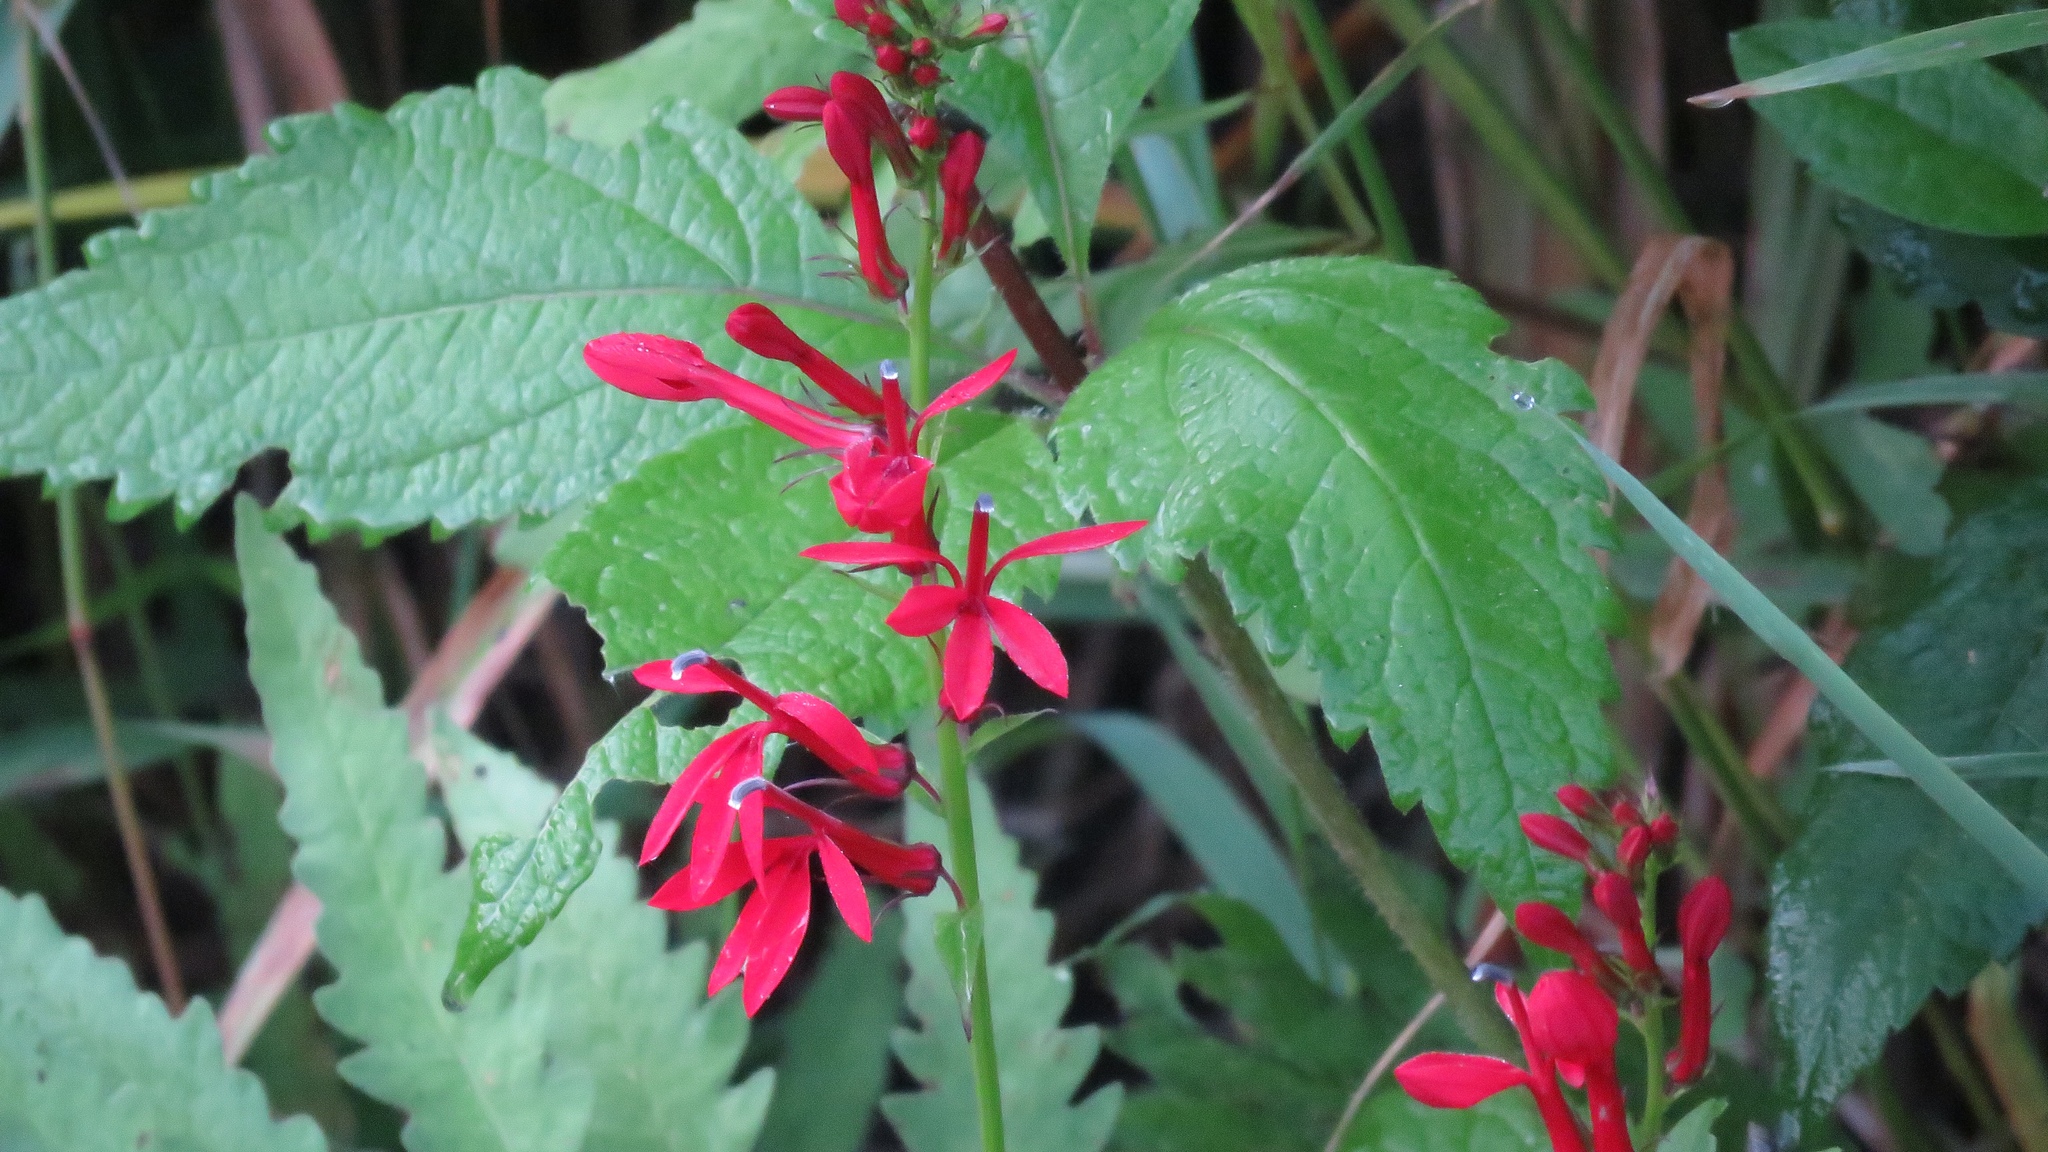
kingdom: Plantae
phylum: Tracheophyta
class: Magnoliopsida
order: Asterales
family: Campanulaceae
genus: Lobelia
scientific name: Lobelia cardinalis
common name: Cardinal flower
